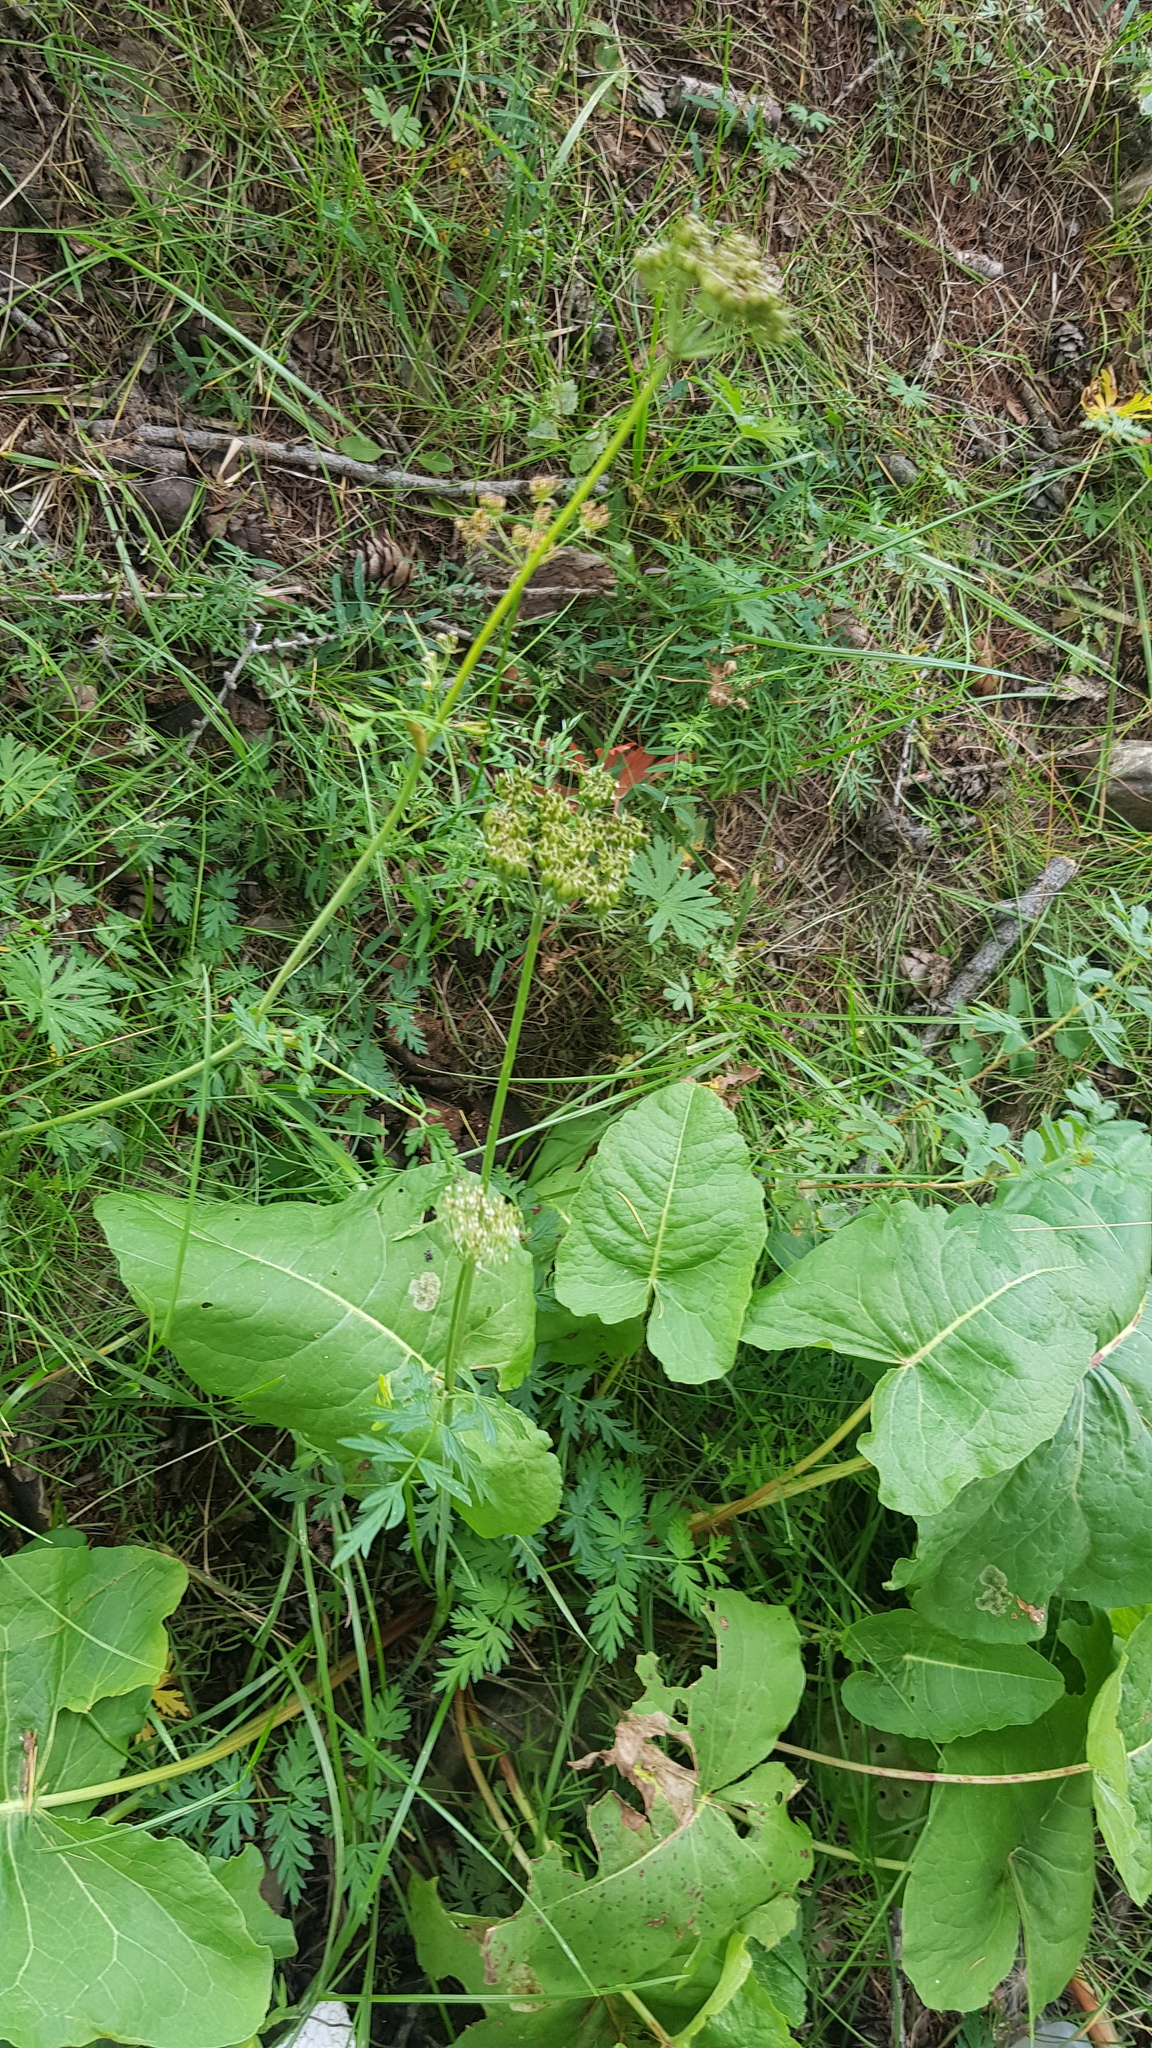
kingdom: Plantae
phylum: Tracheophyta
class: Magnoliopsida
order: Asterales
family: Asteraceae
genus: Ligularia
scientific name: Ligularia sibirica
